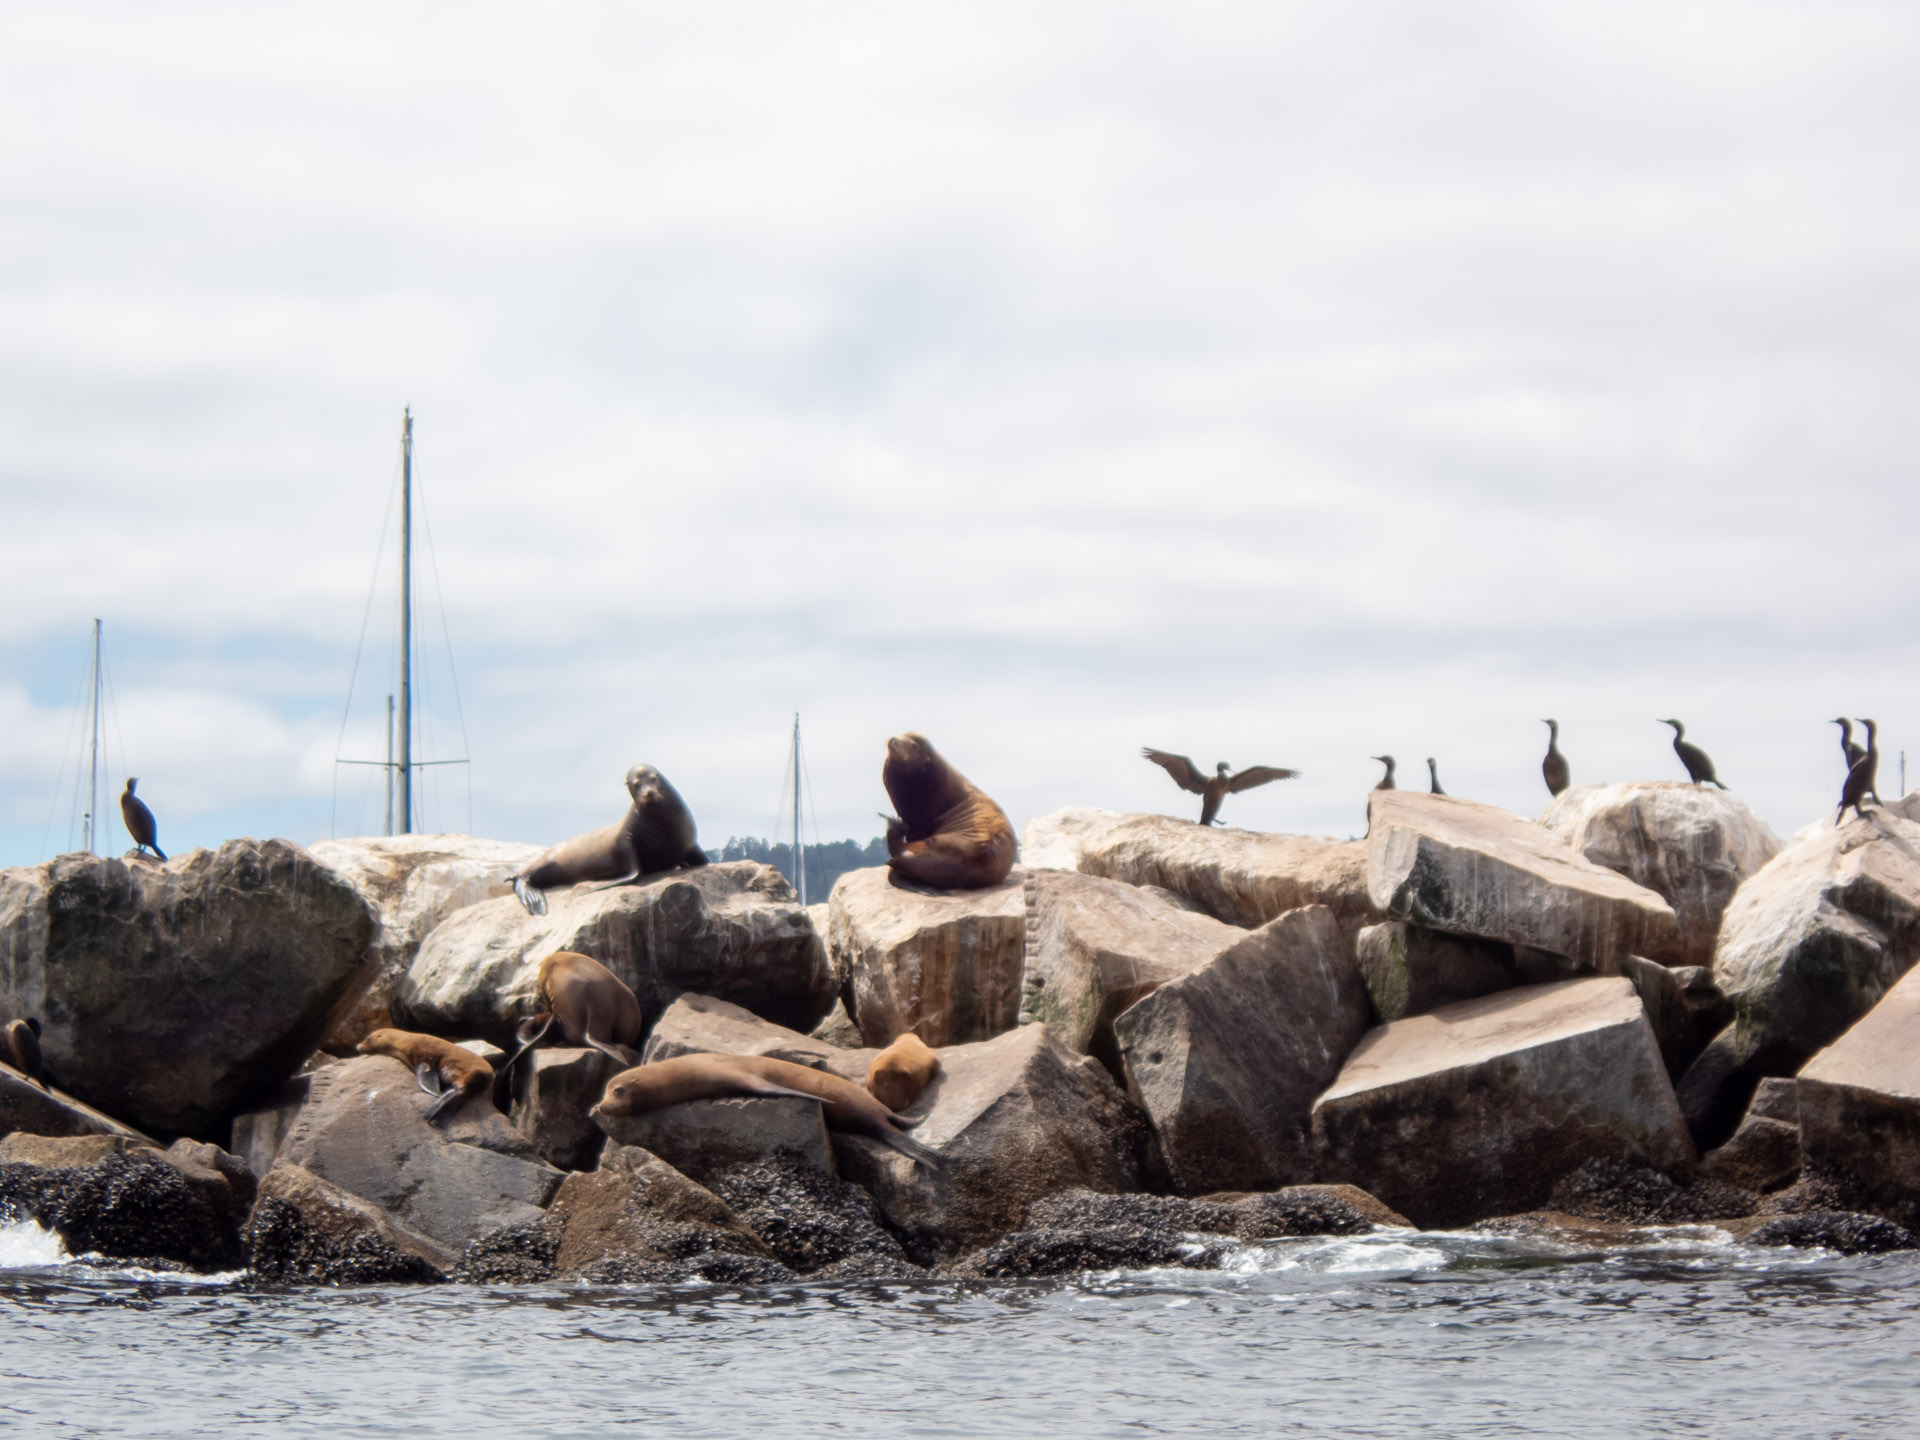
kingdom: Animalia
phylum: Chordata
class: Mammalia
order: Carnivora
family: Otariidae
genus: Zalophus
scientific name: Zalophus californianus
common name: California sea lion
